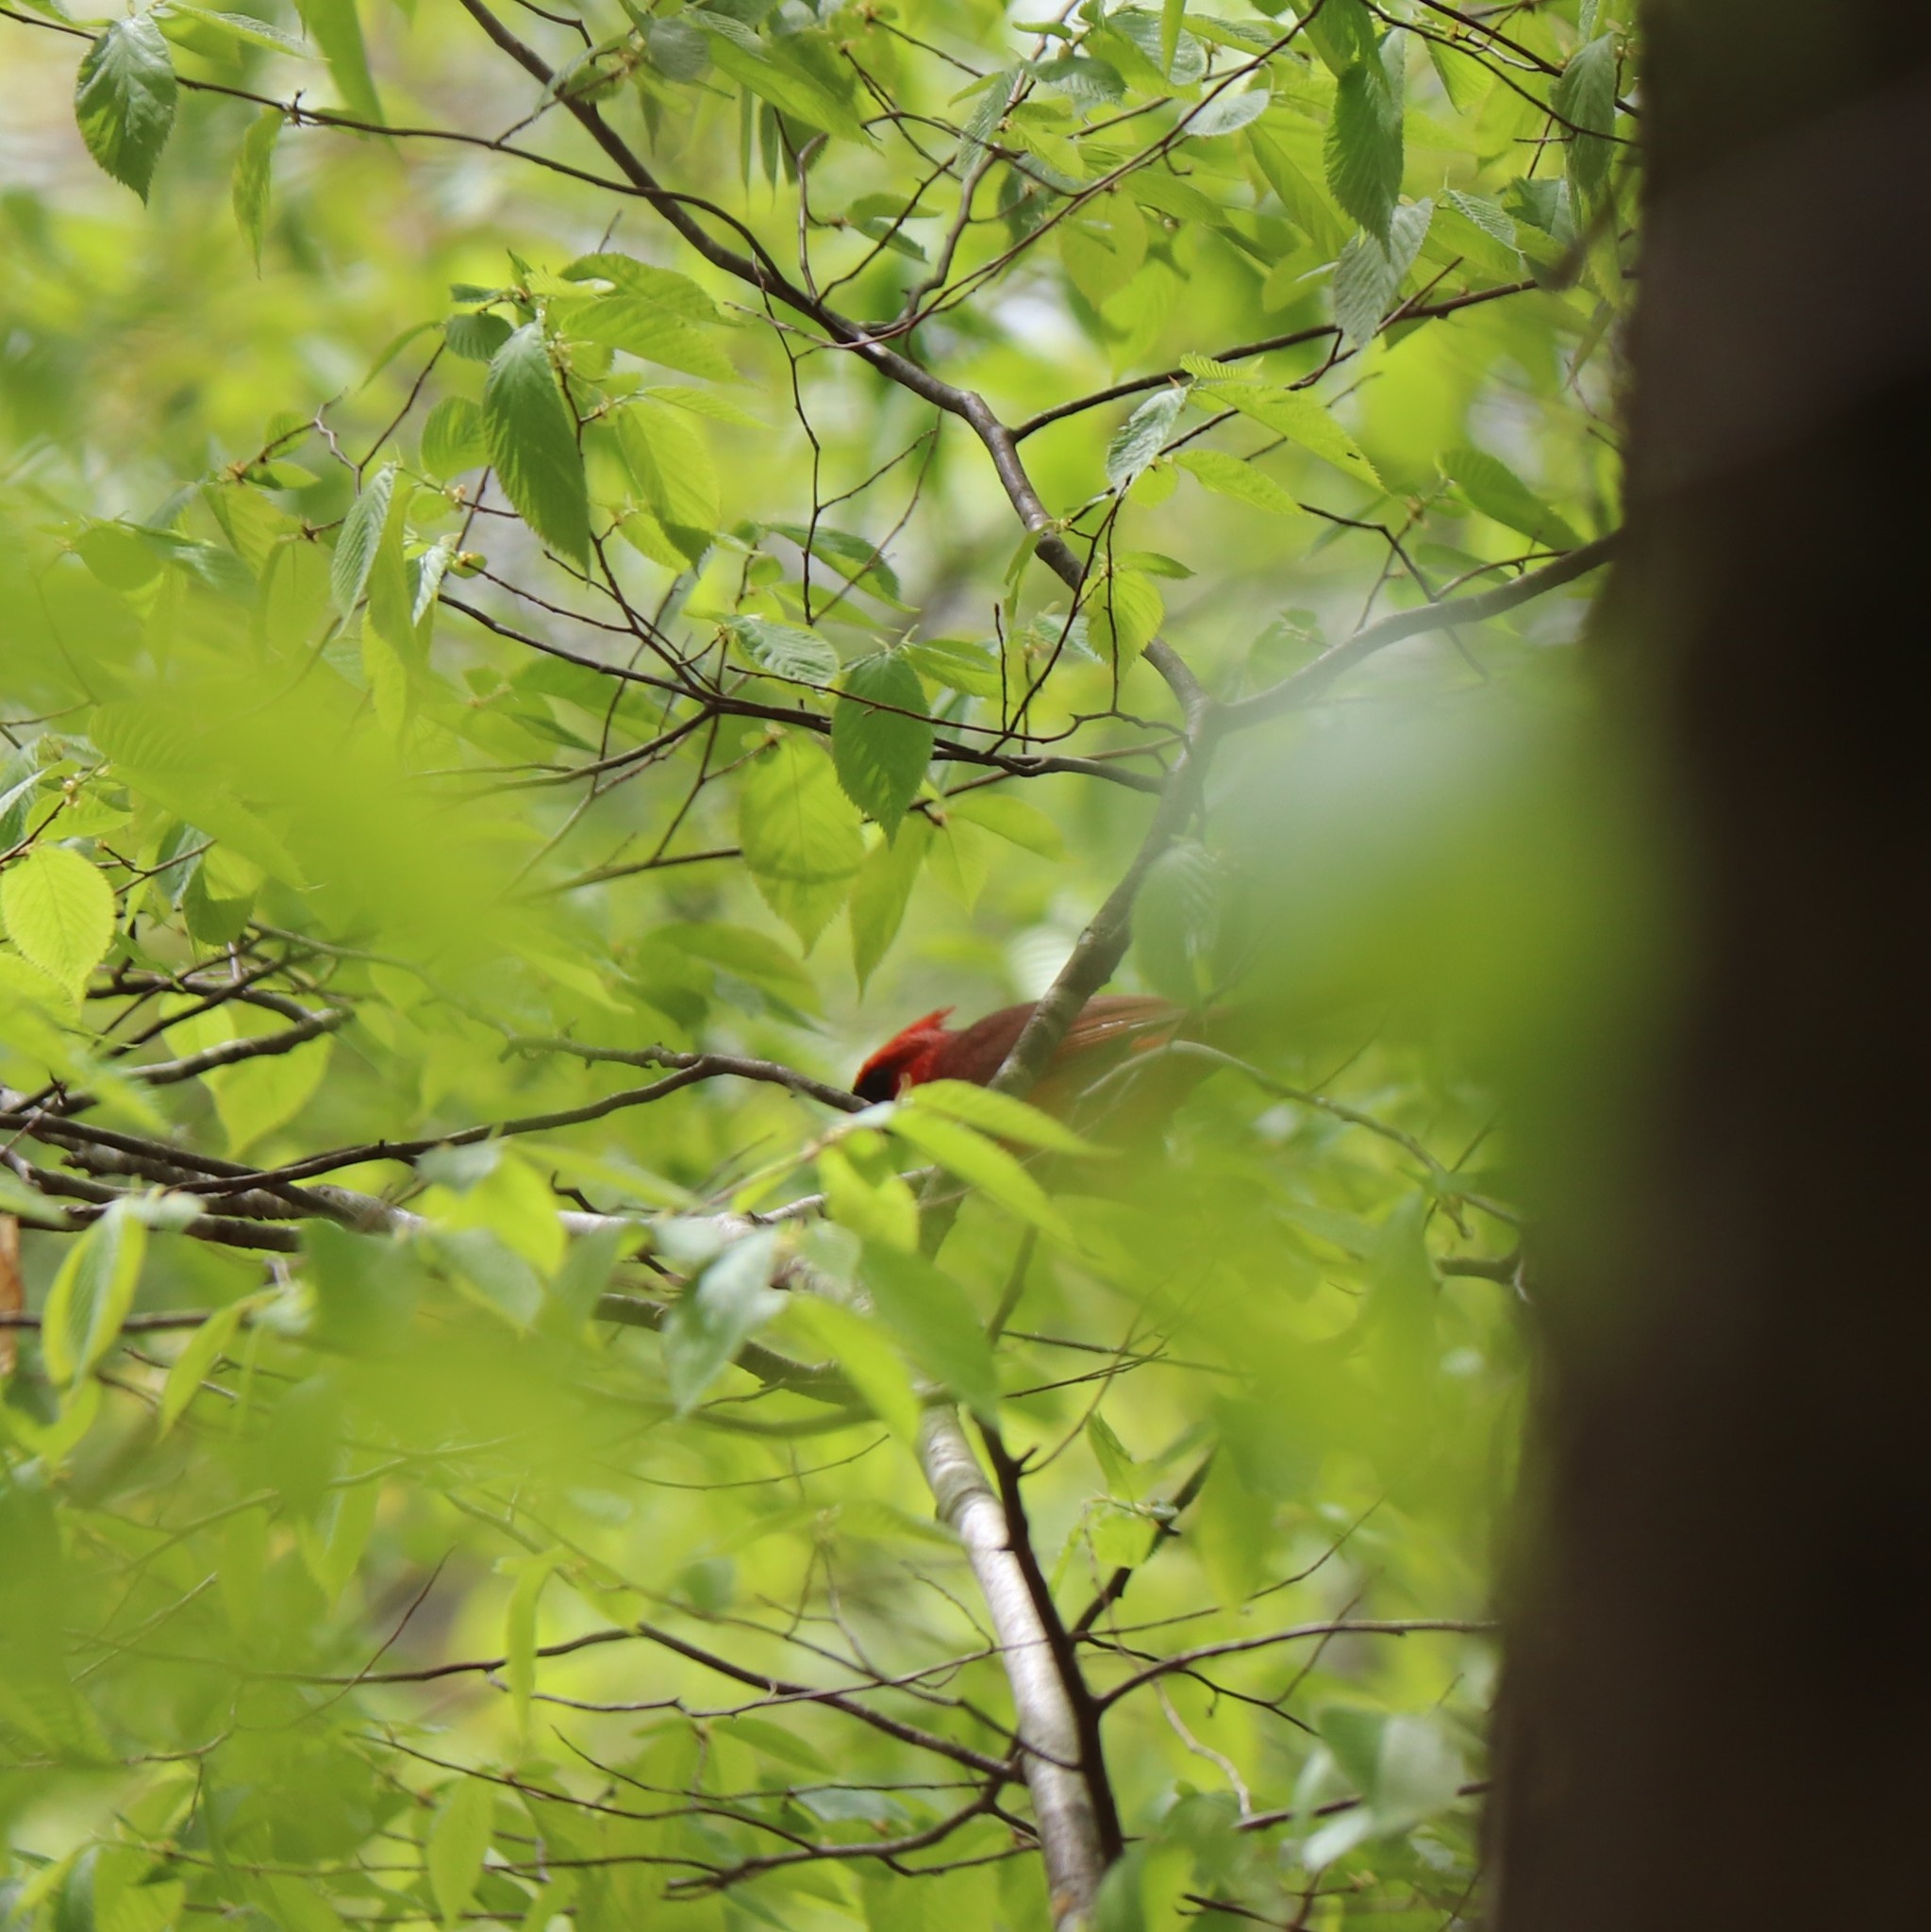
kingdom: Animalia
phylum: Chordata
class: Aves
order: Passeriformes
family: Cardinalidae
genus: Cardinalis
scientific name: Cardinalis cardinalis
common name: Northern cardinal
